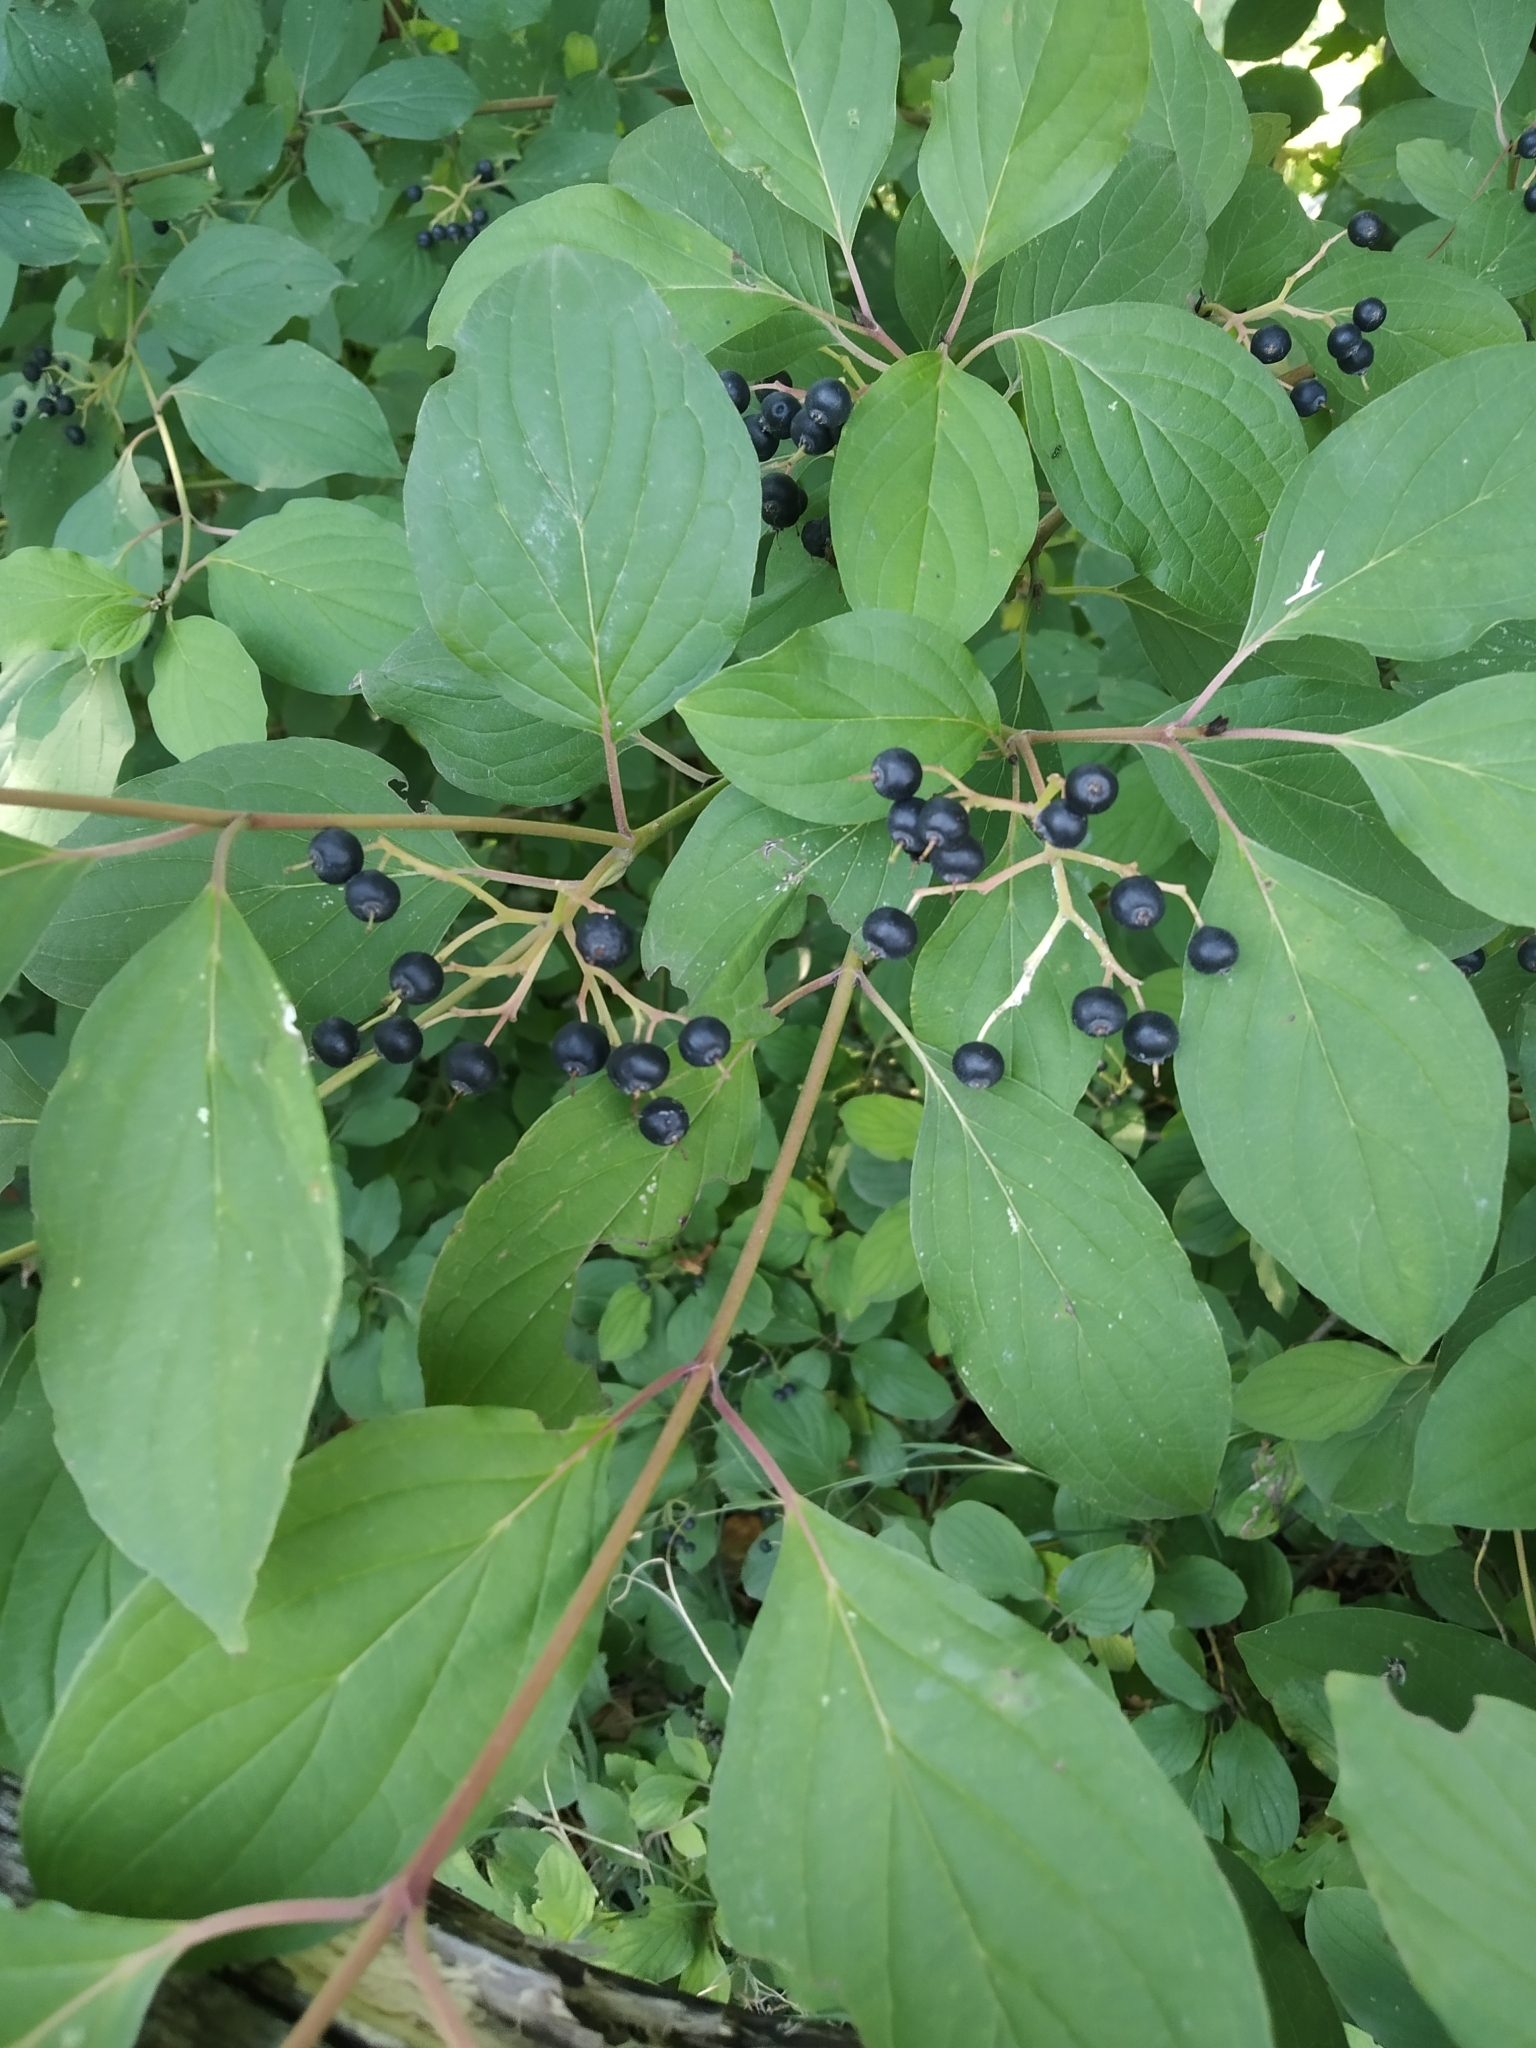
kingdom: Plantae
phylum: Tracheophyta
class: Magnoliopsida
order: Cornales
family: Cornaceae
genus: Cornus
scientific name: Cornus sanguinea
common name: Dogwood
